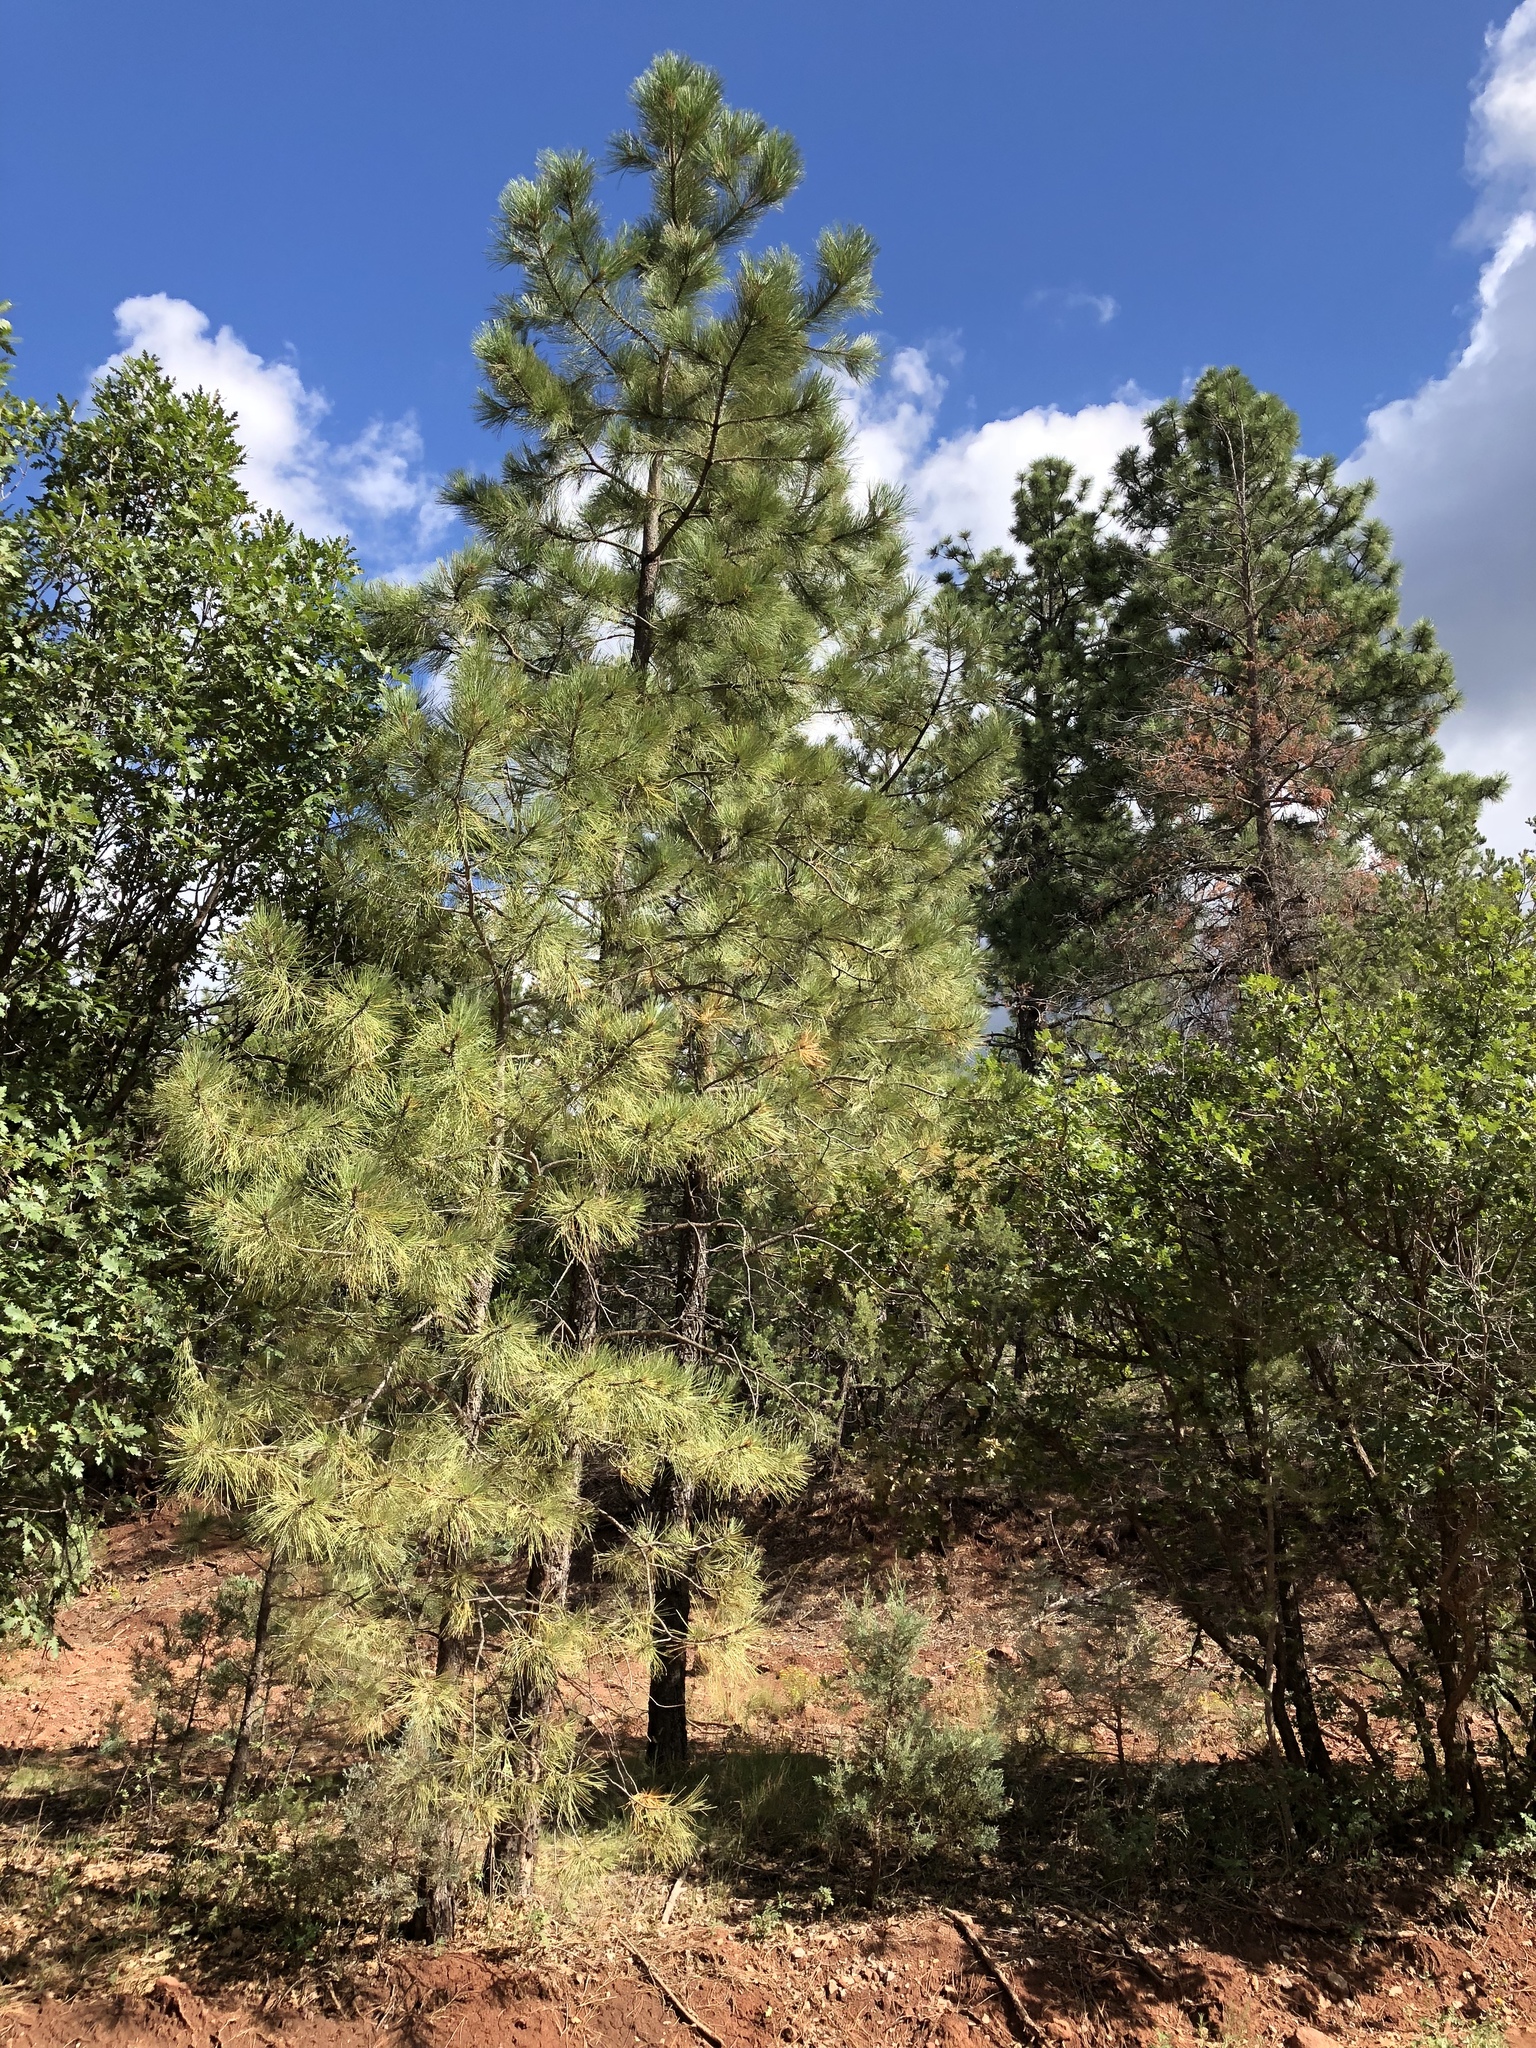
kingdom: Plantae
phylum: Tracheophyta
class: Pinopsida
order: Pinales
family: Pinaceae
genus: Pinus
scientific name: Pinus ponderosa
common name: Western yellow-pine
